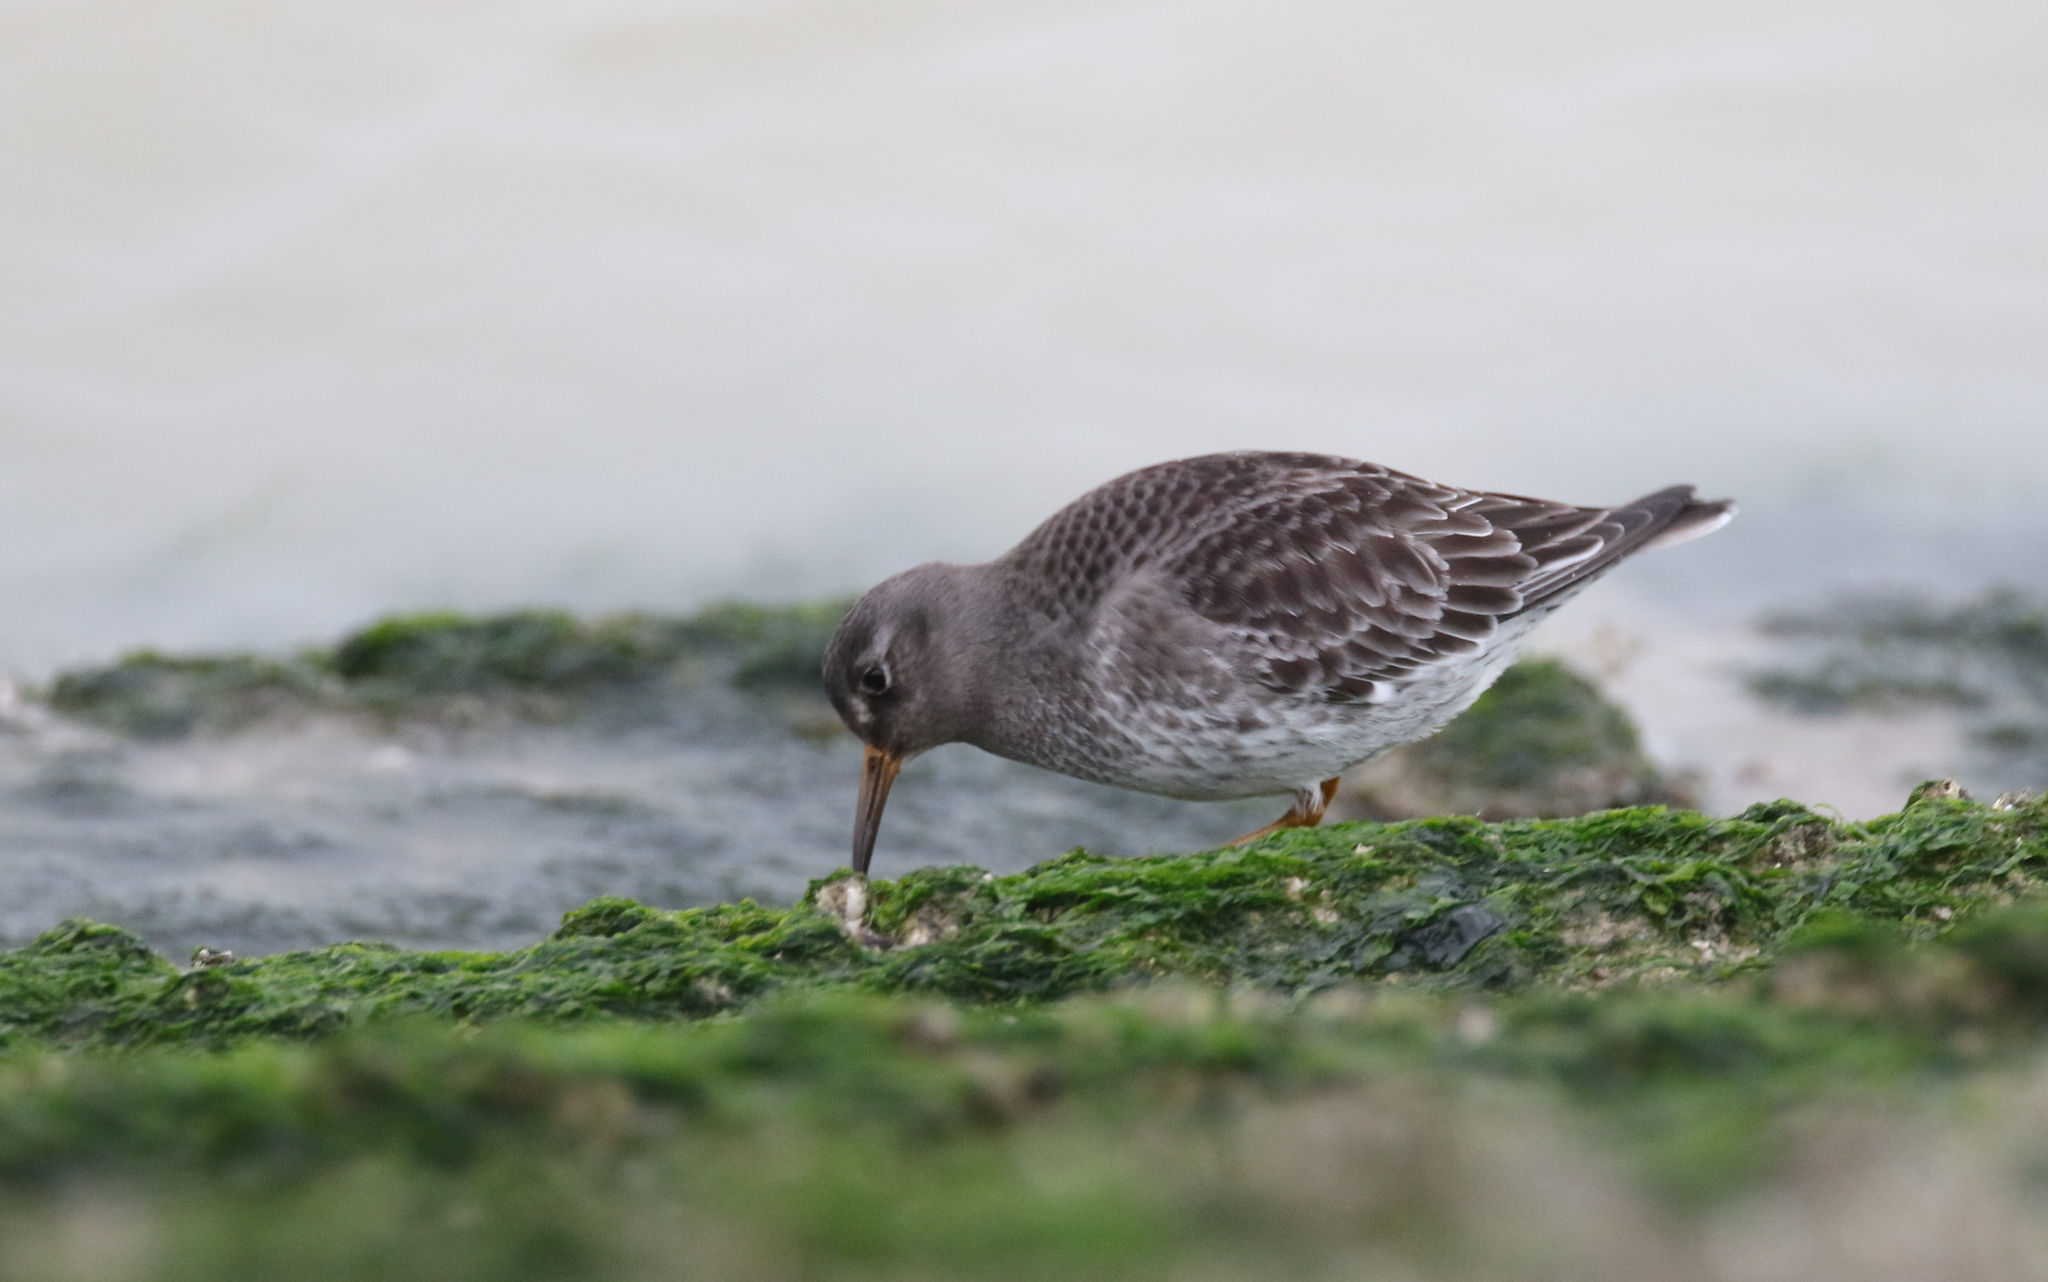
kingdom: Animalia
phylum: Chordata
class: Aves
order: Charadriiformes
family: Scolopacidae
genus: Calidris
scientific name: Calidris maritima
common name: Purple sandpiper
